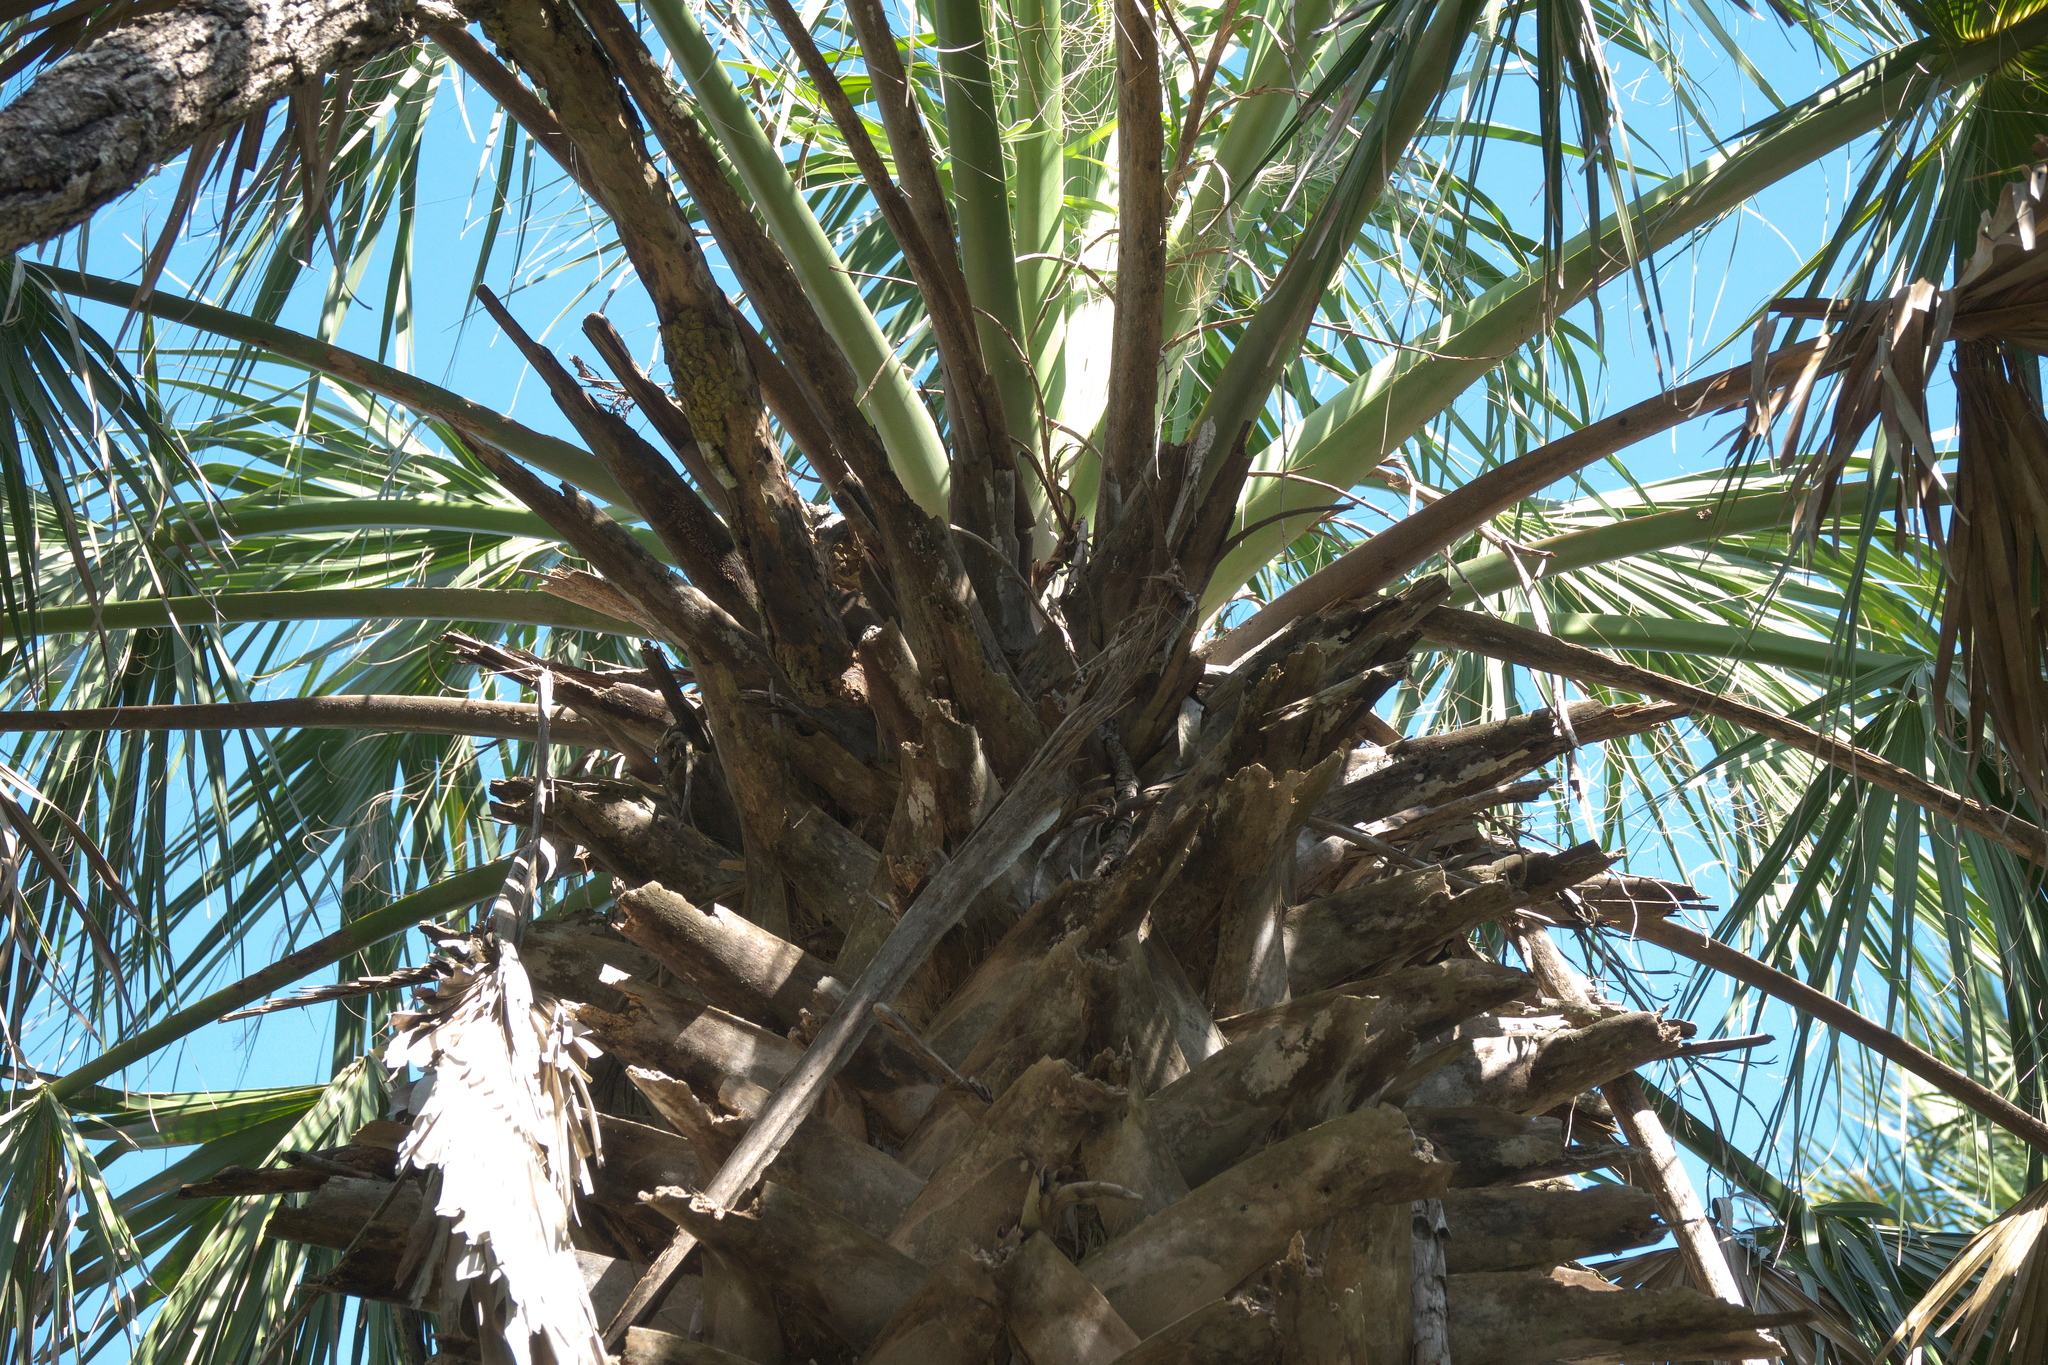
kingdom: Plantae
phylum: Tracheophyta
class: Liliopsida
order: Arecales
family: Arecaceae
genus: Sabal
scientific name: Sabal mexicana
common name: Texas palmetto
